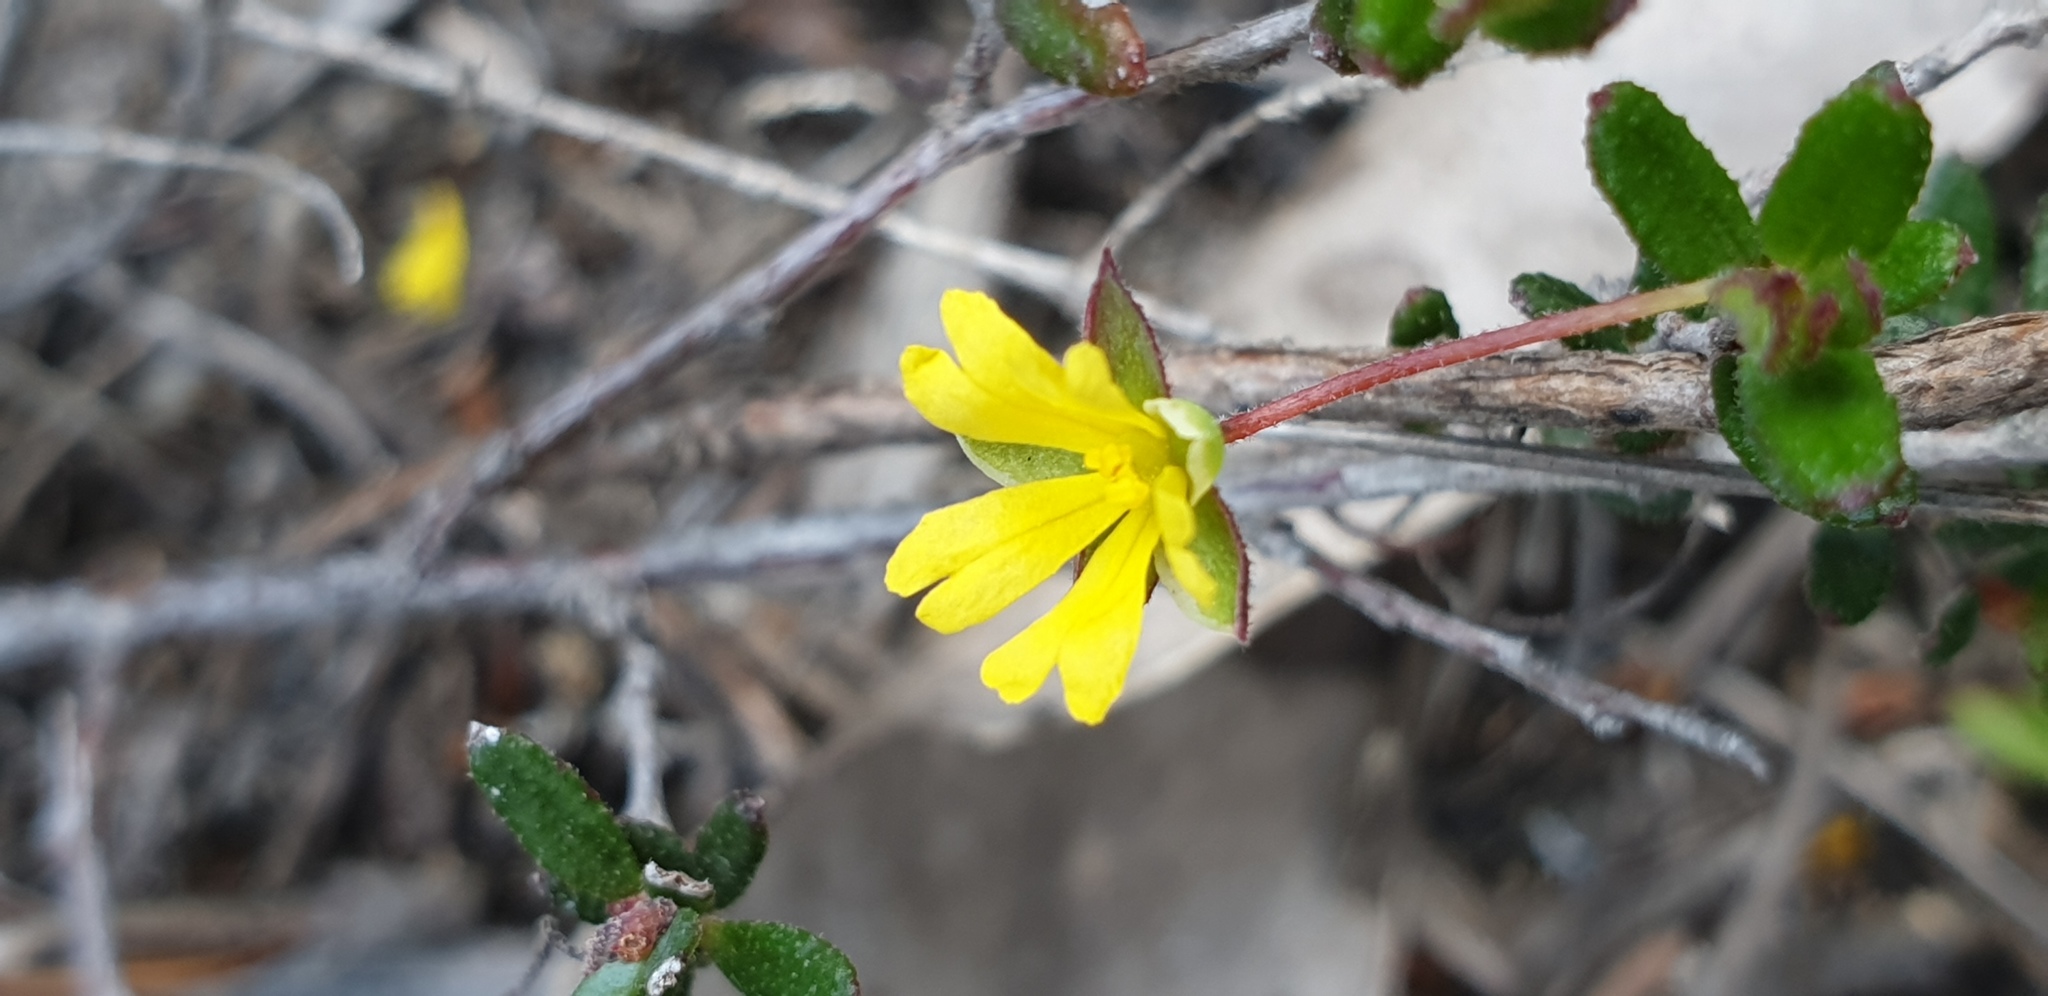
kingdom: Plantae
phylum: Tracheophyta
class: Magnoliopsida
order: Dilleniales
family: Dilleniaceae
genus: Hibbertia
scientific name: Hibbertia
